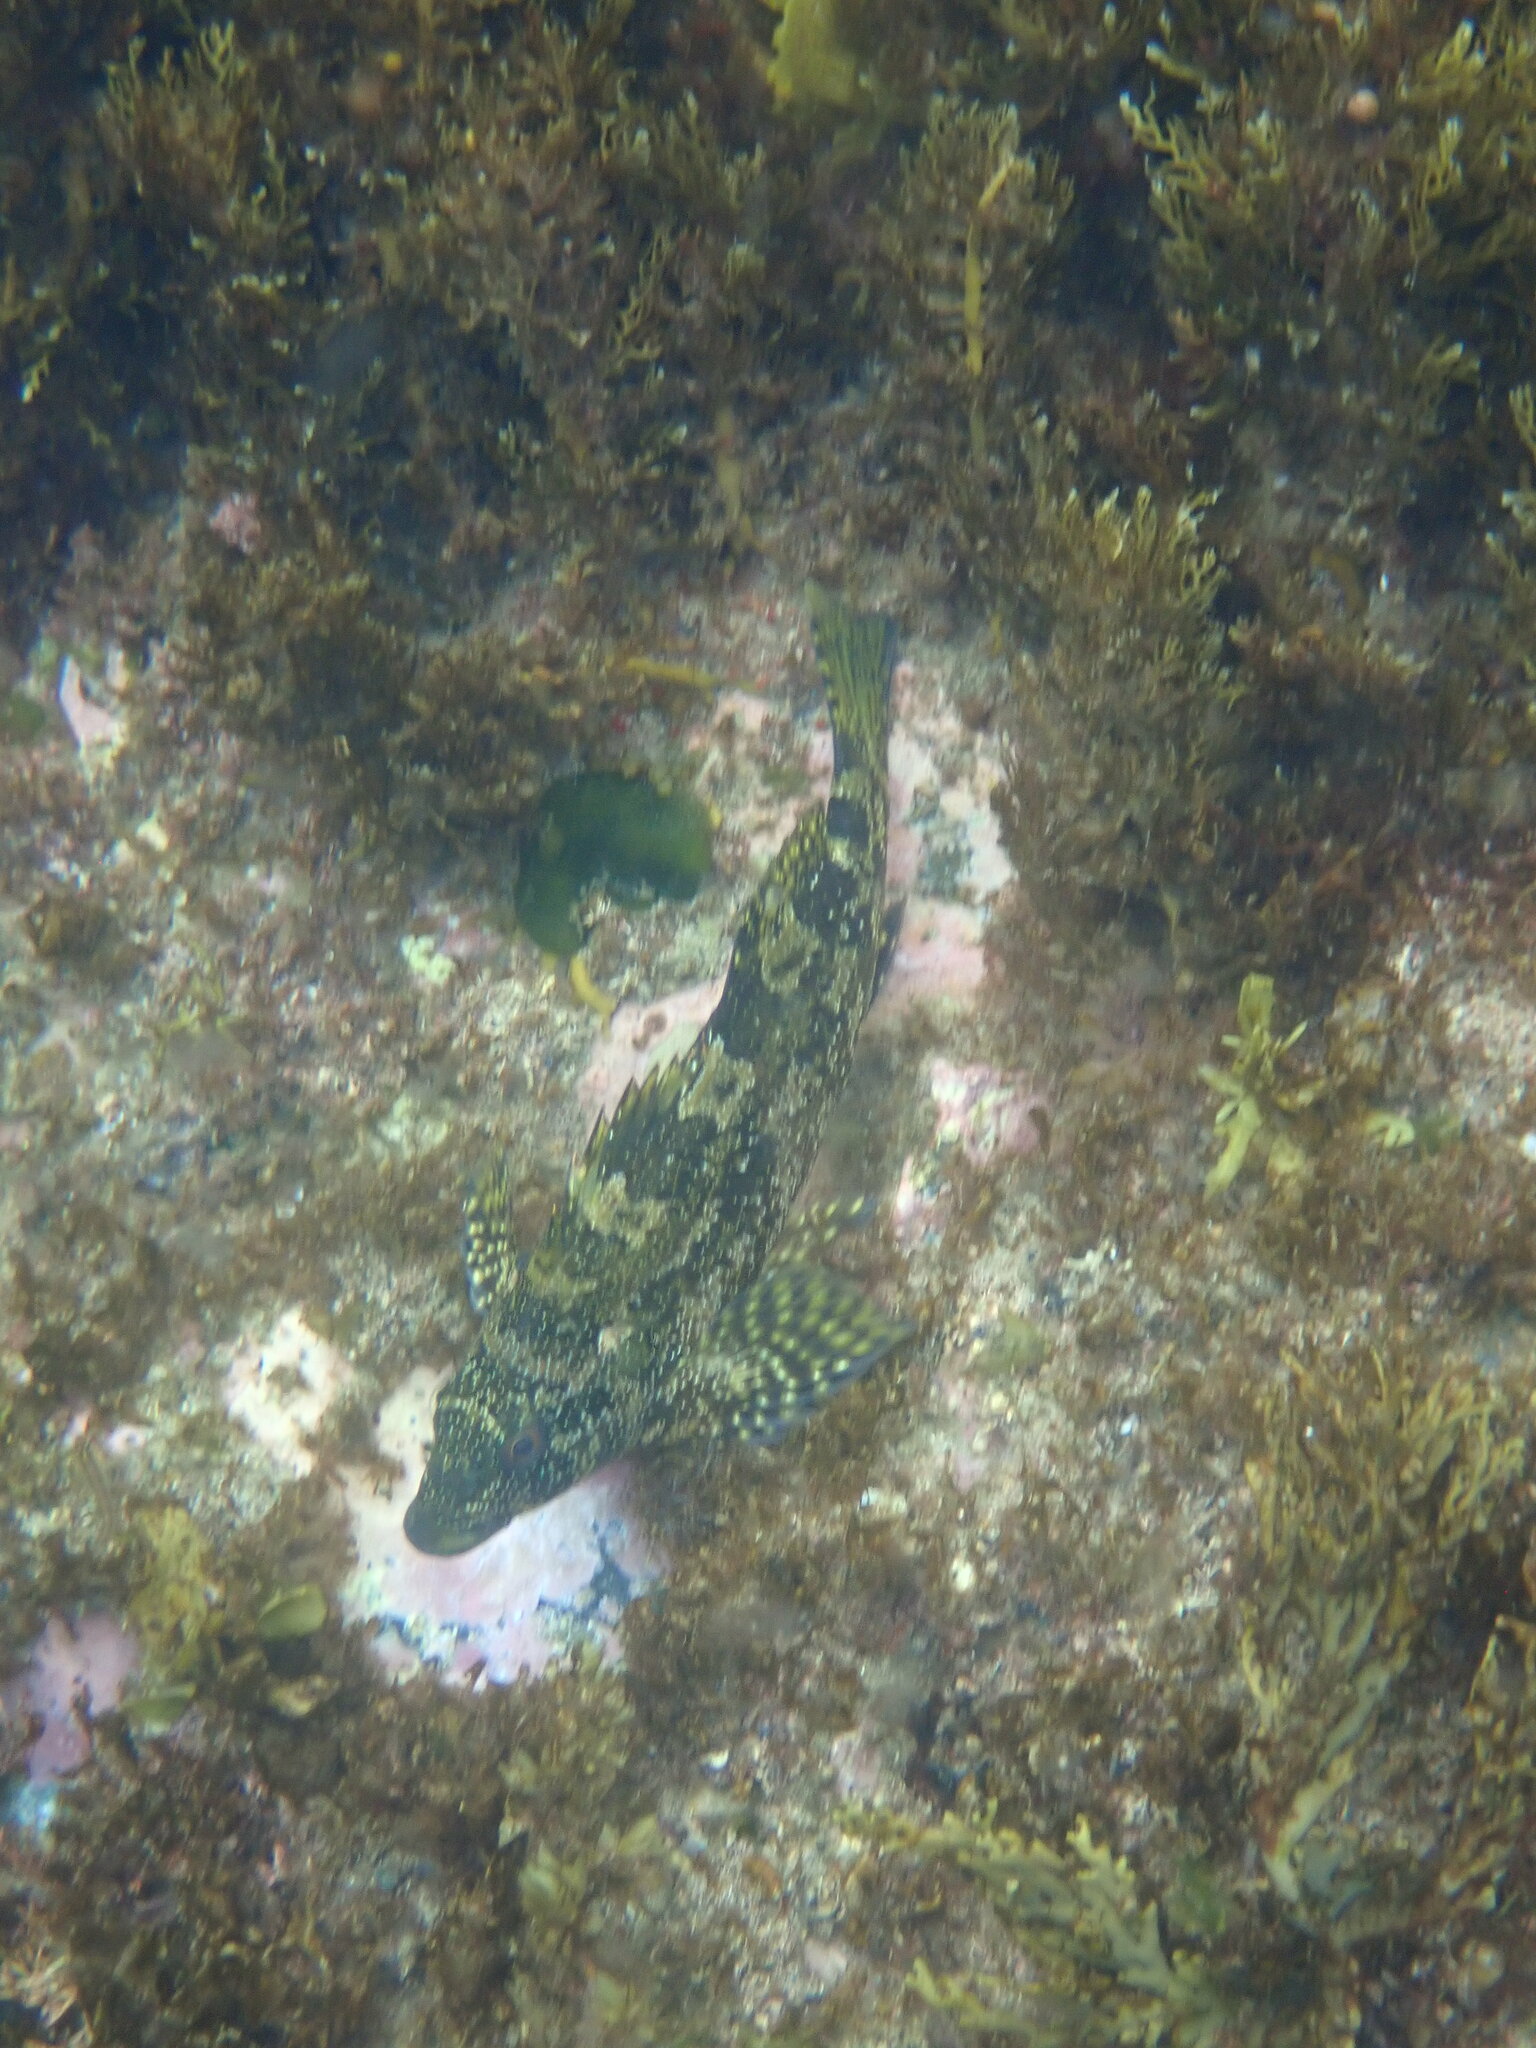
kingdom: Animalia
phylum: Chordata
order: Perciformes
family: Chironemidae
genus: Chironemus
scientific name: Chironemus marmoratus
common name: Kelpfish
